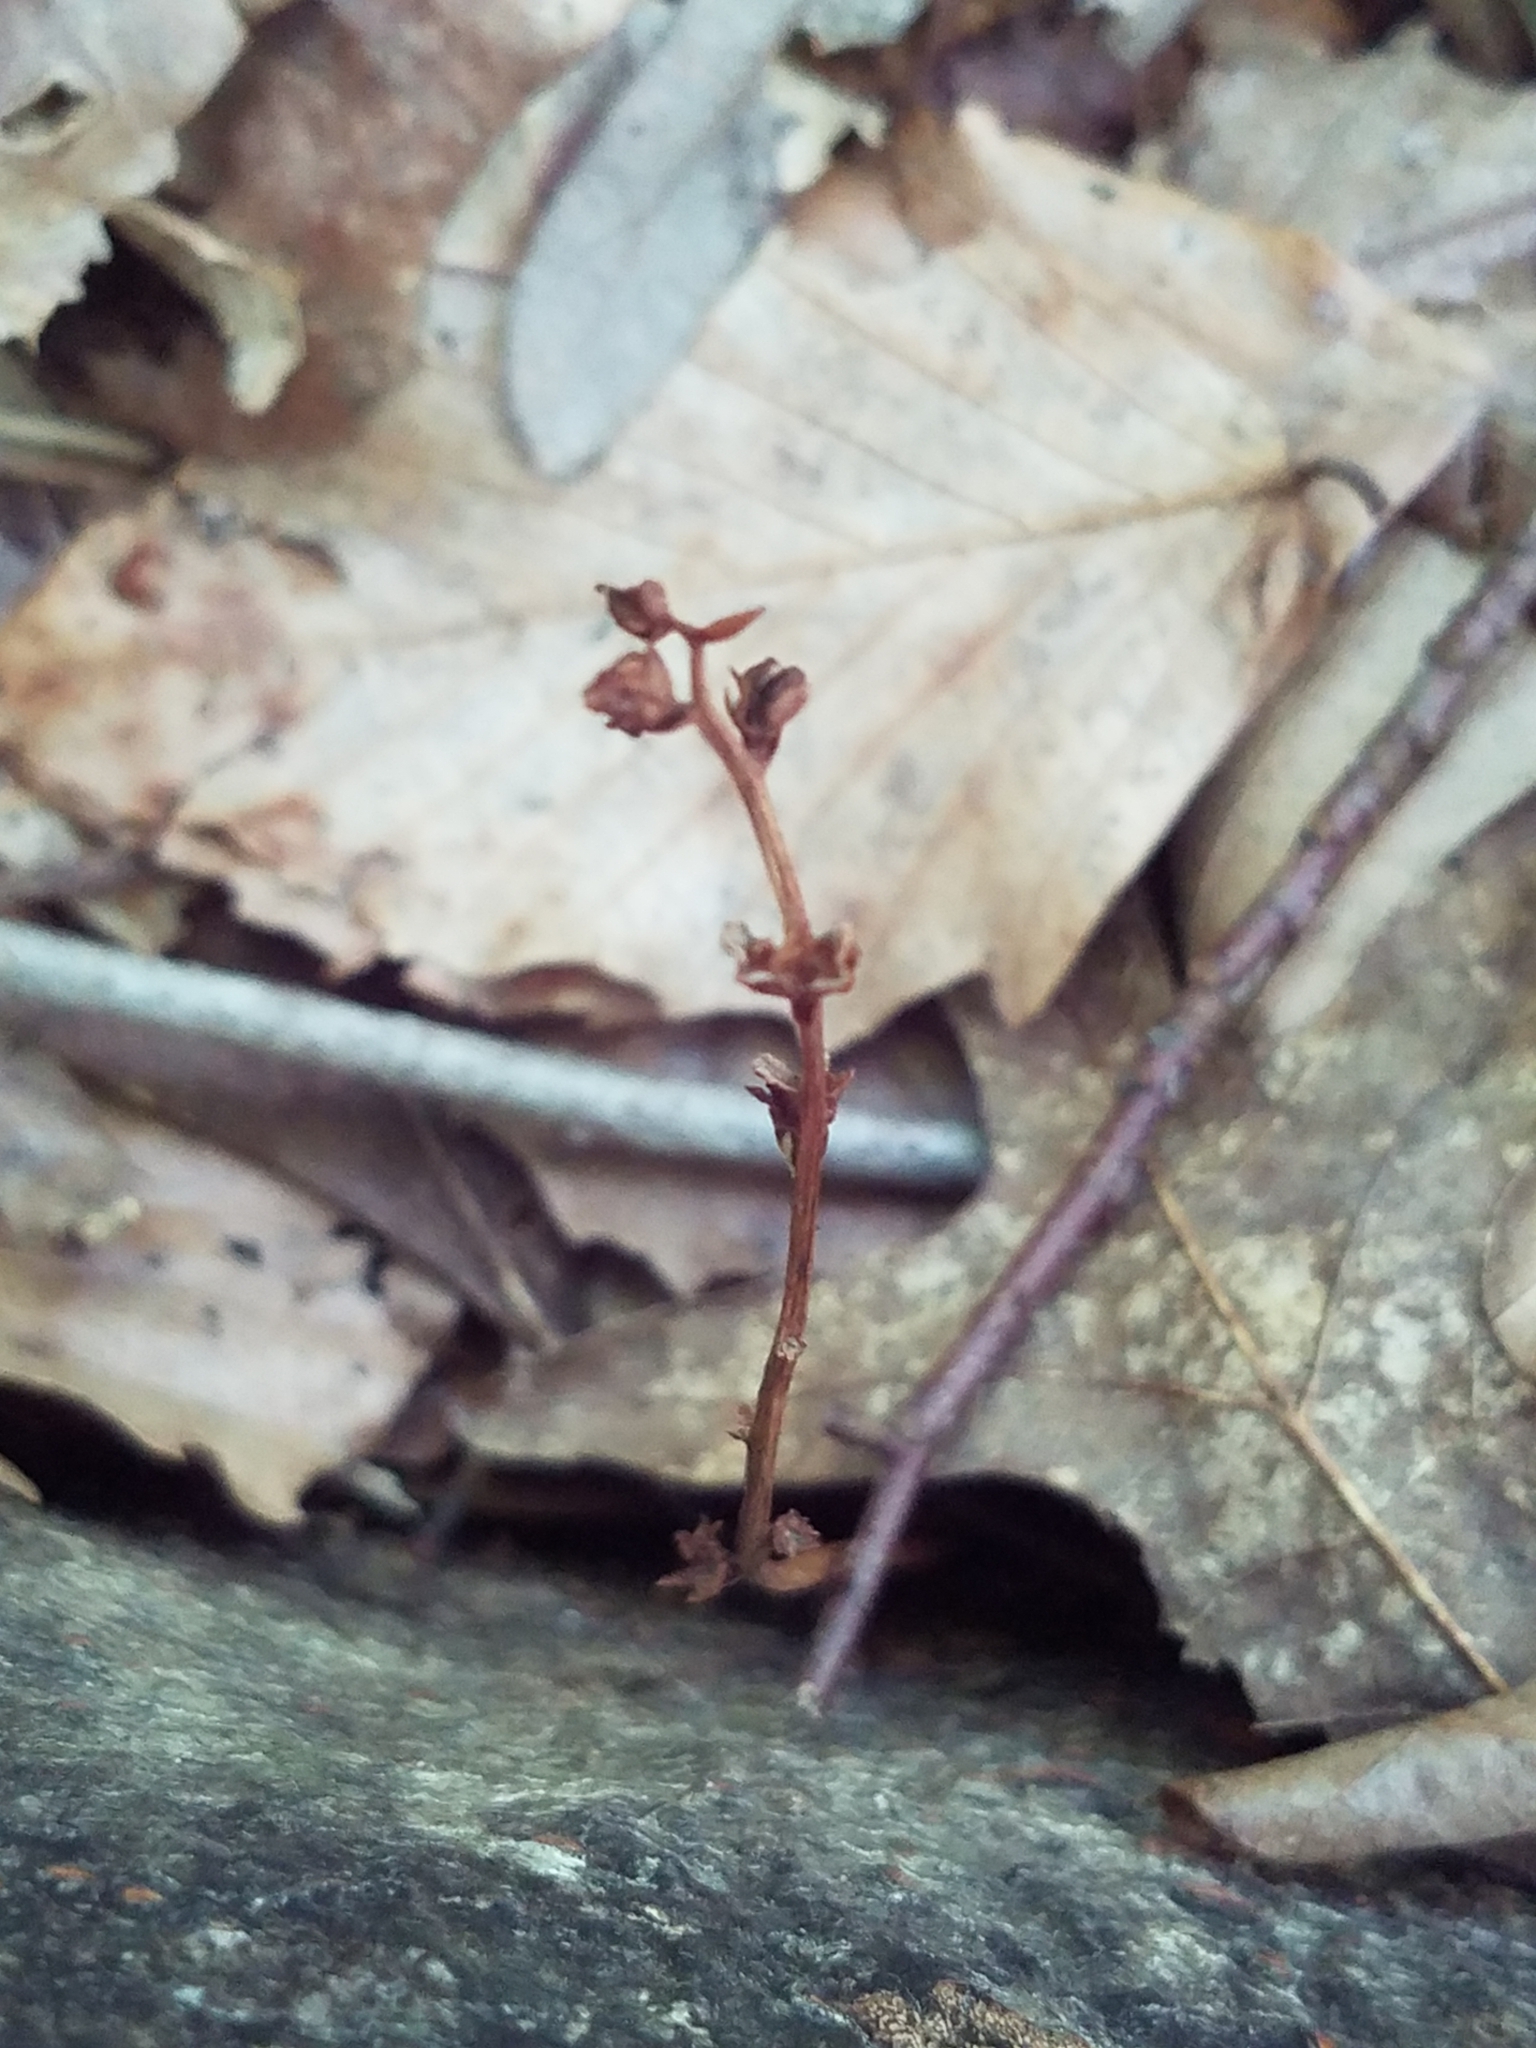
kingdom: Plantae
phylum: Tracheophyta
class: Magnoliopsida
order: Lamiales
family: Orobanchaceae
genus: Epifagus
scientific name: Epifagus virginiana
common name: Beechdrops
